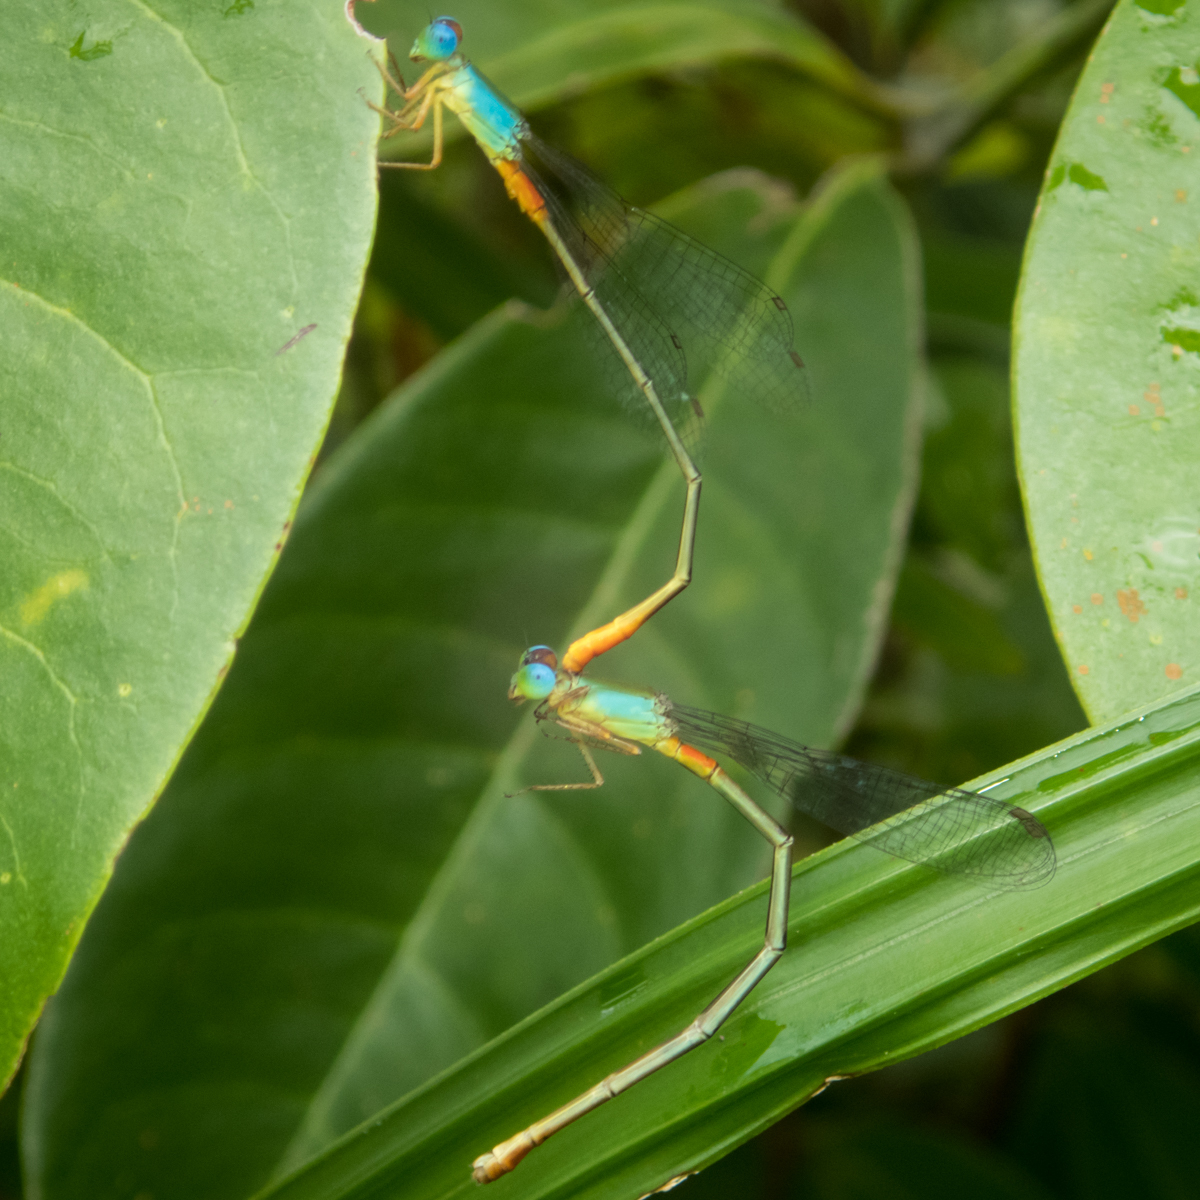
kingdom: Animalia
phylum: Arthropoda
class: Insecta
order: Odonata
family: Coenagrionidae
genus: Ceriagrion
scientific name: Ceriagrion cerinorubellum
